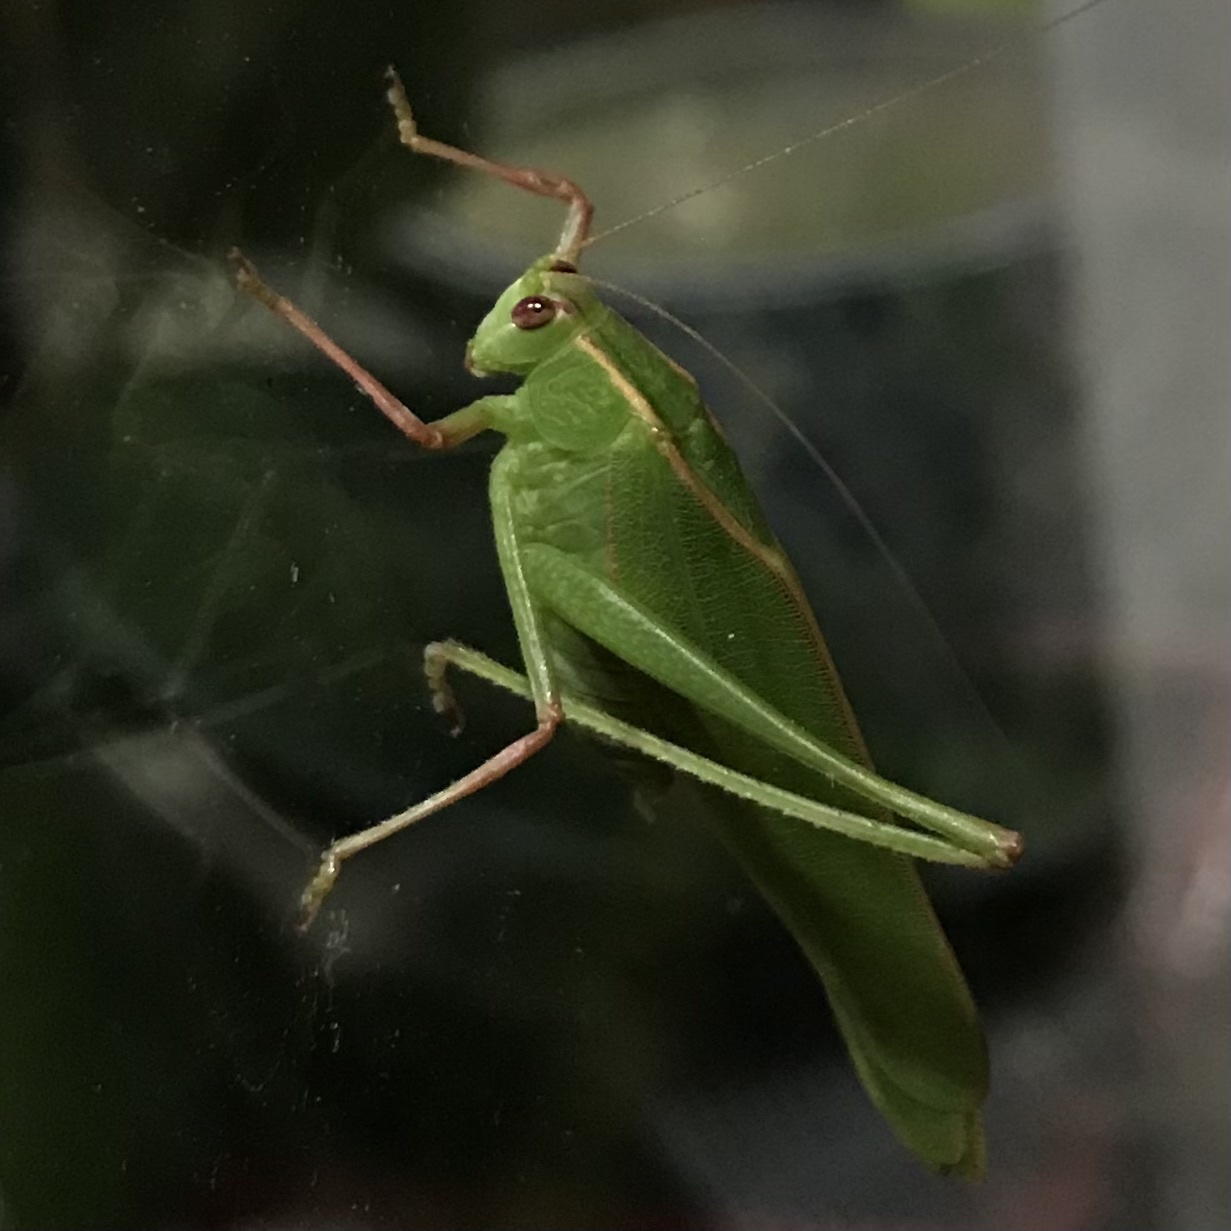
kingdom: Animalia
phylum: Arthropoda
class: Insecta
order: Orthoptera
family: Tettigoniidae
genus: Caedicia
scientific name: Caedicia simplex
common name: Common garden katydid
